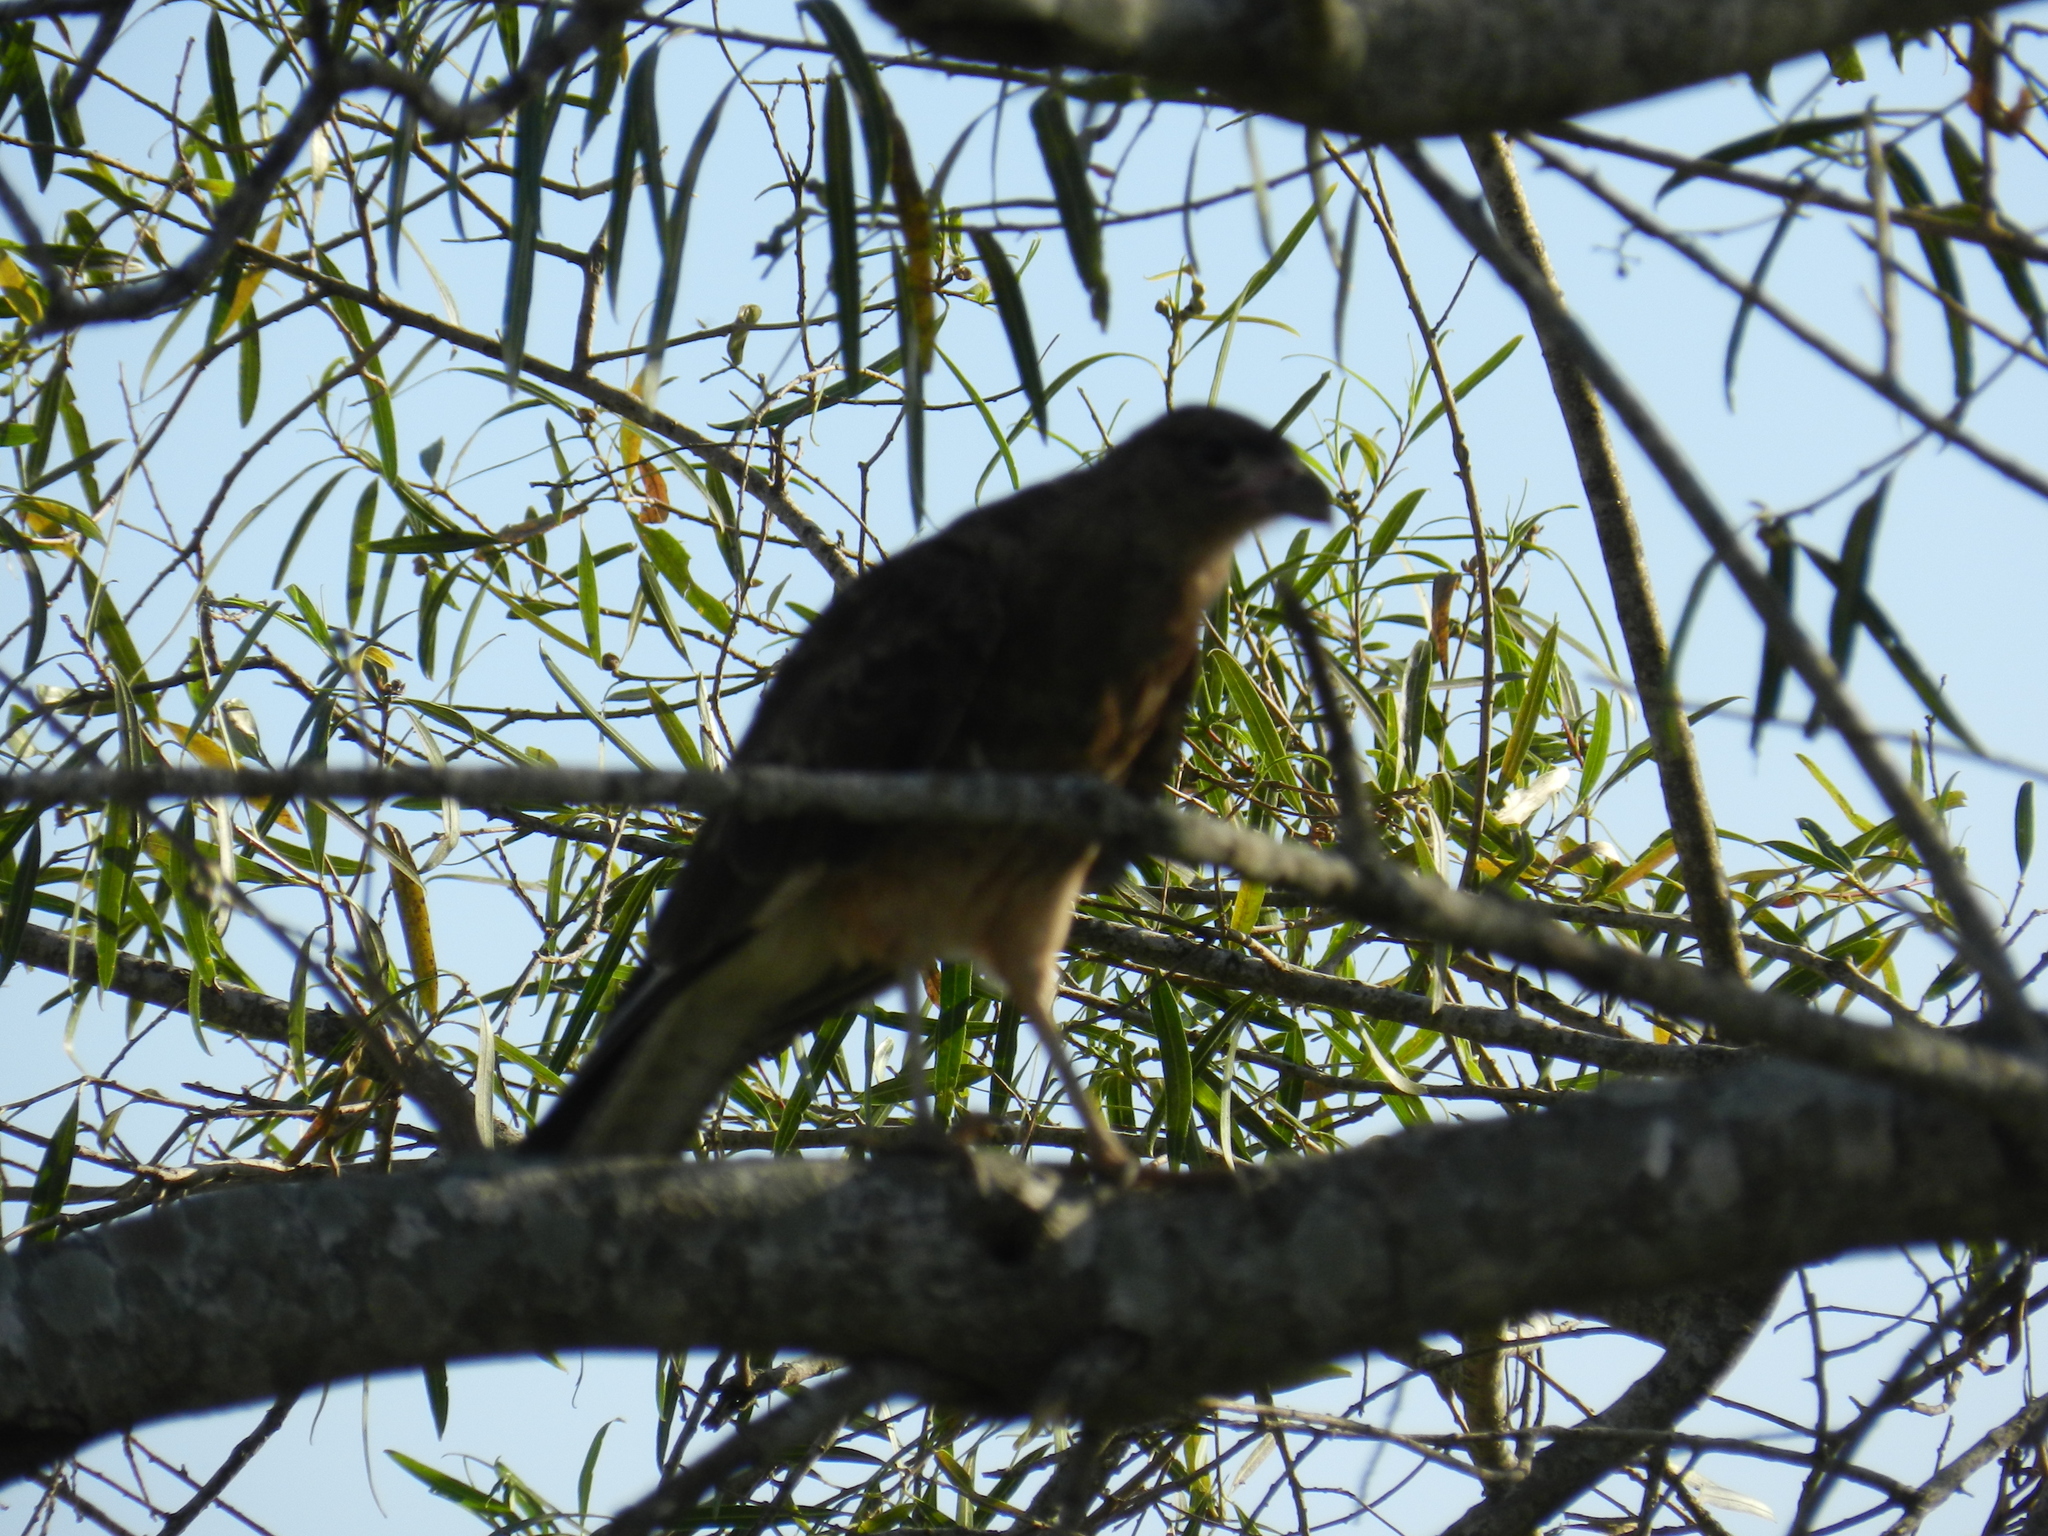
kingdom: Animalia
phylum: Chordata
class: Aves
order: Falconiformes
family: Falconidae
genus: Daptrius
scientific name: Daptrius
